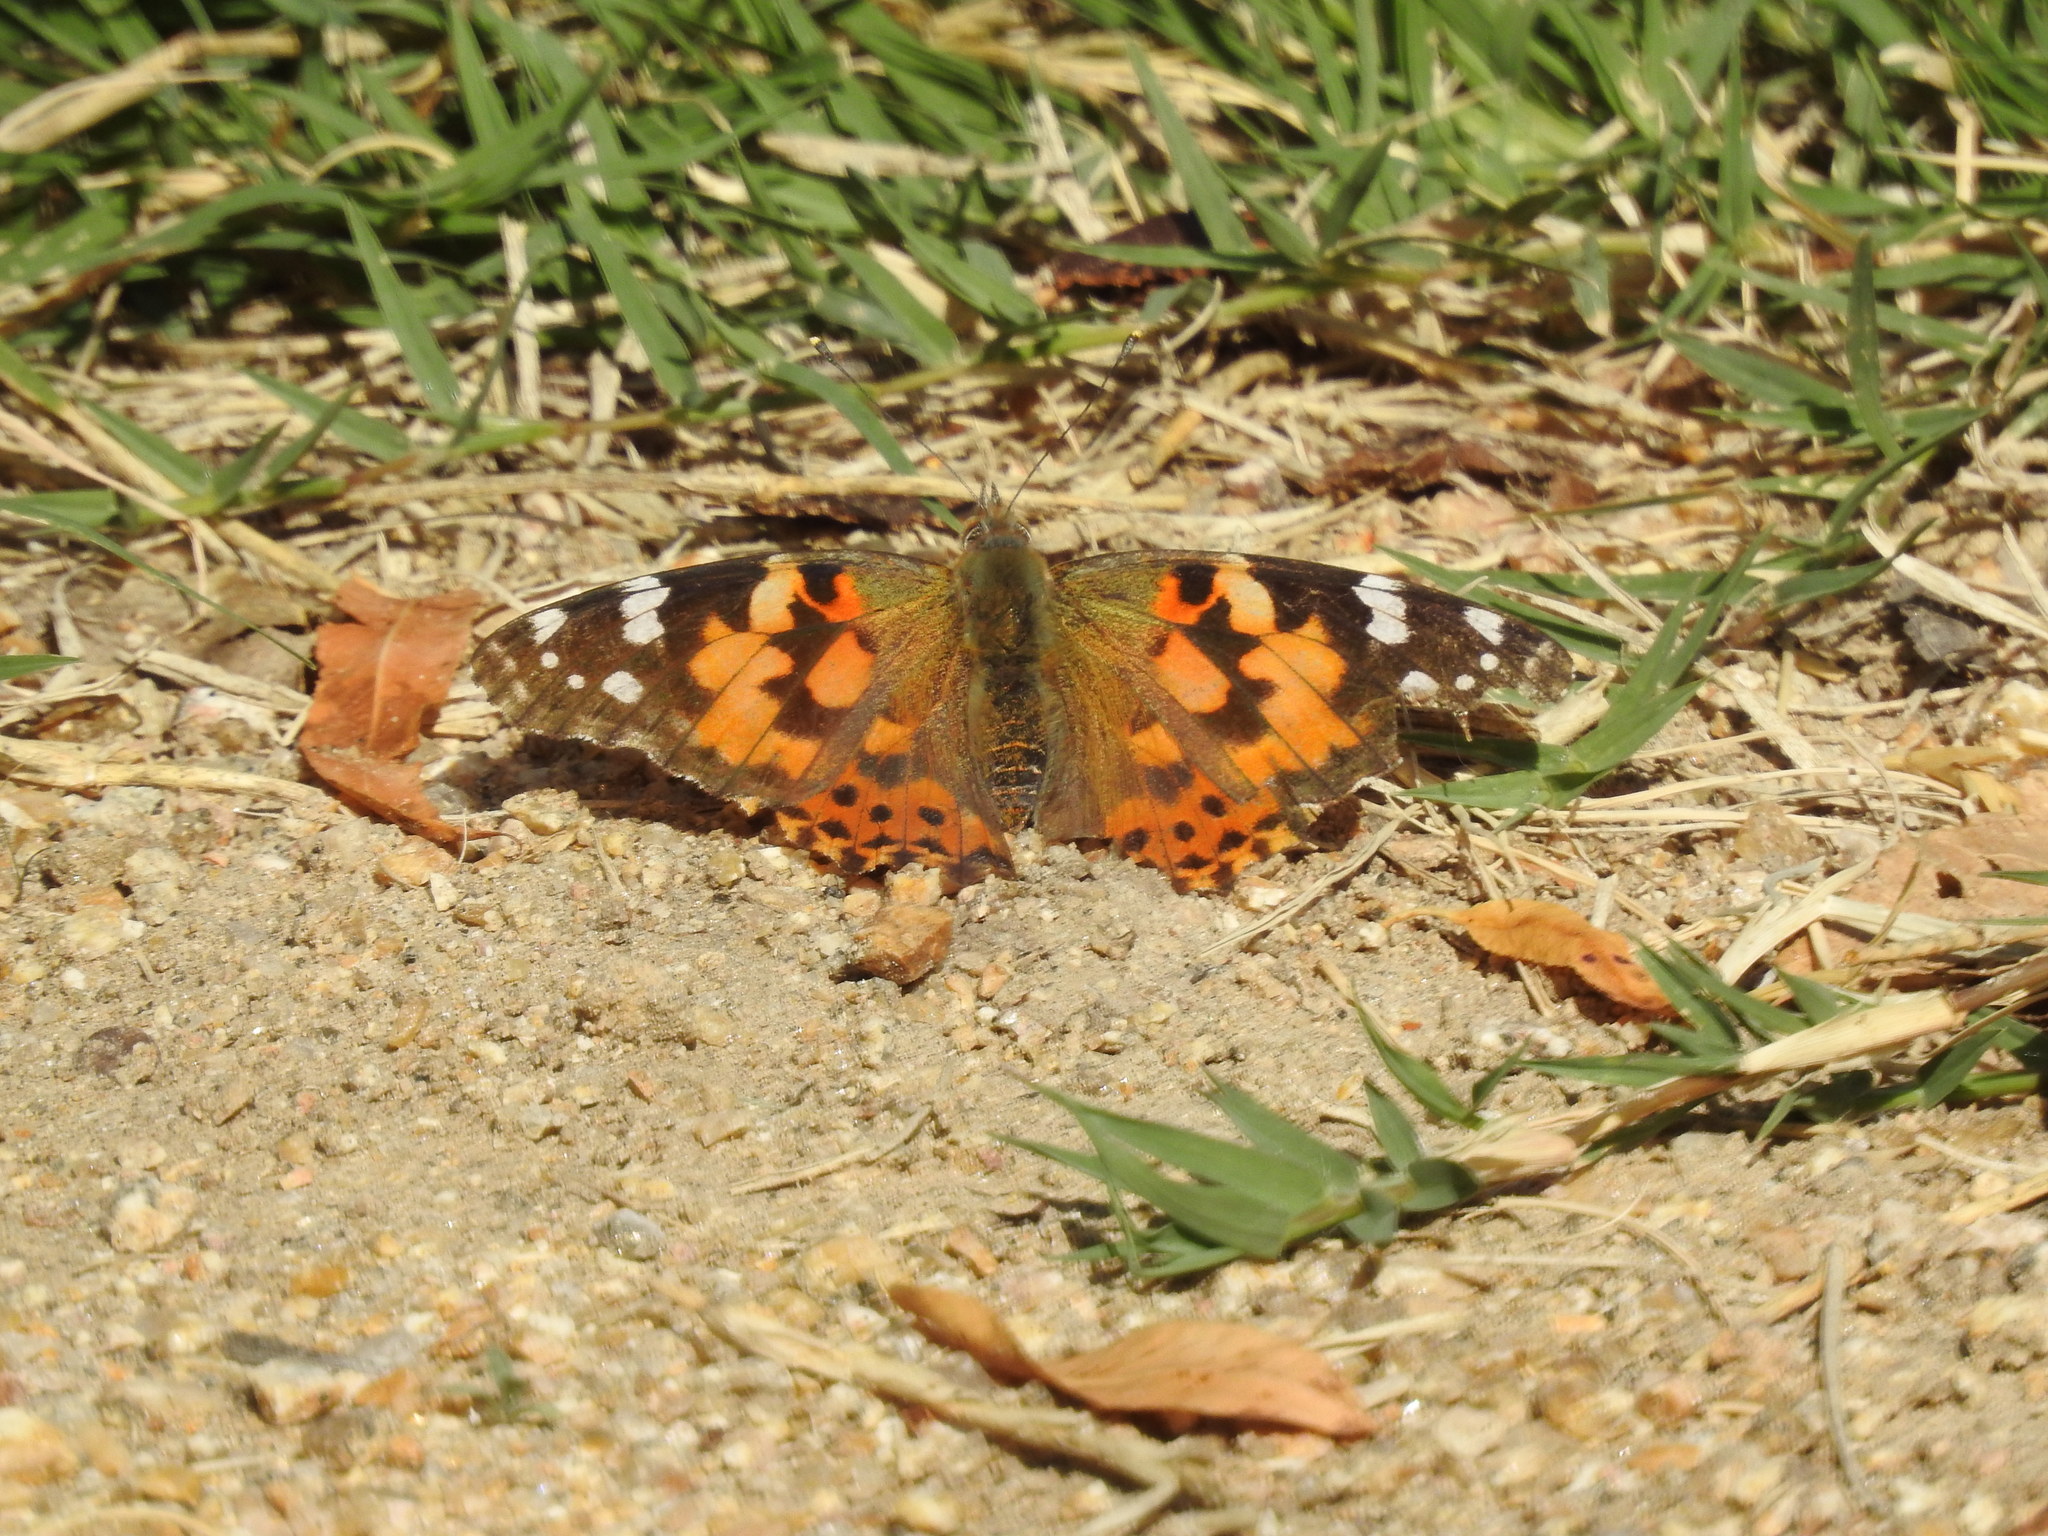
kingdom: Animalia
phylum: Arthropoda
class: Insecta
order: Lepidoptera
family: Nymphalidae
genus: Vanessa
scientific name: Vanessa cardui
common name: Painted lady
